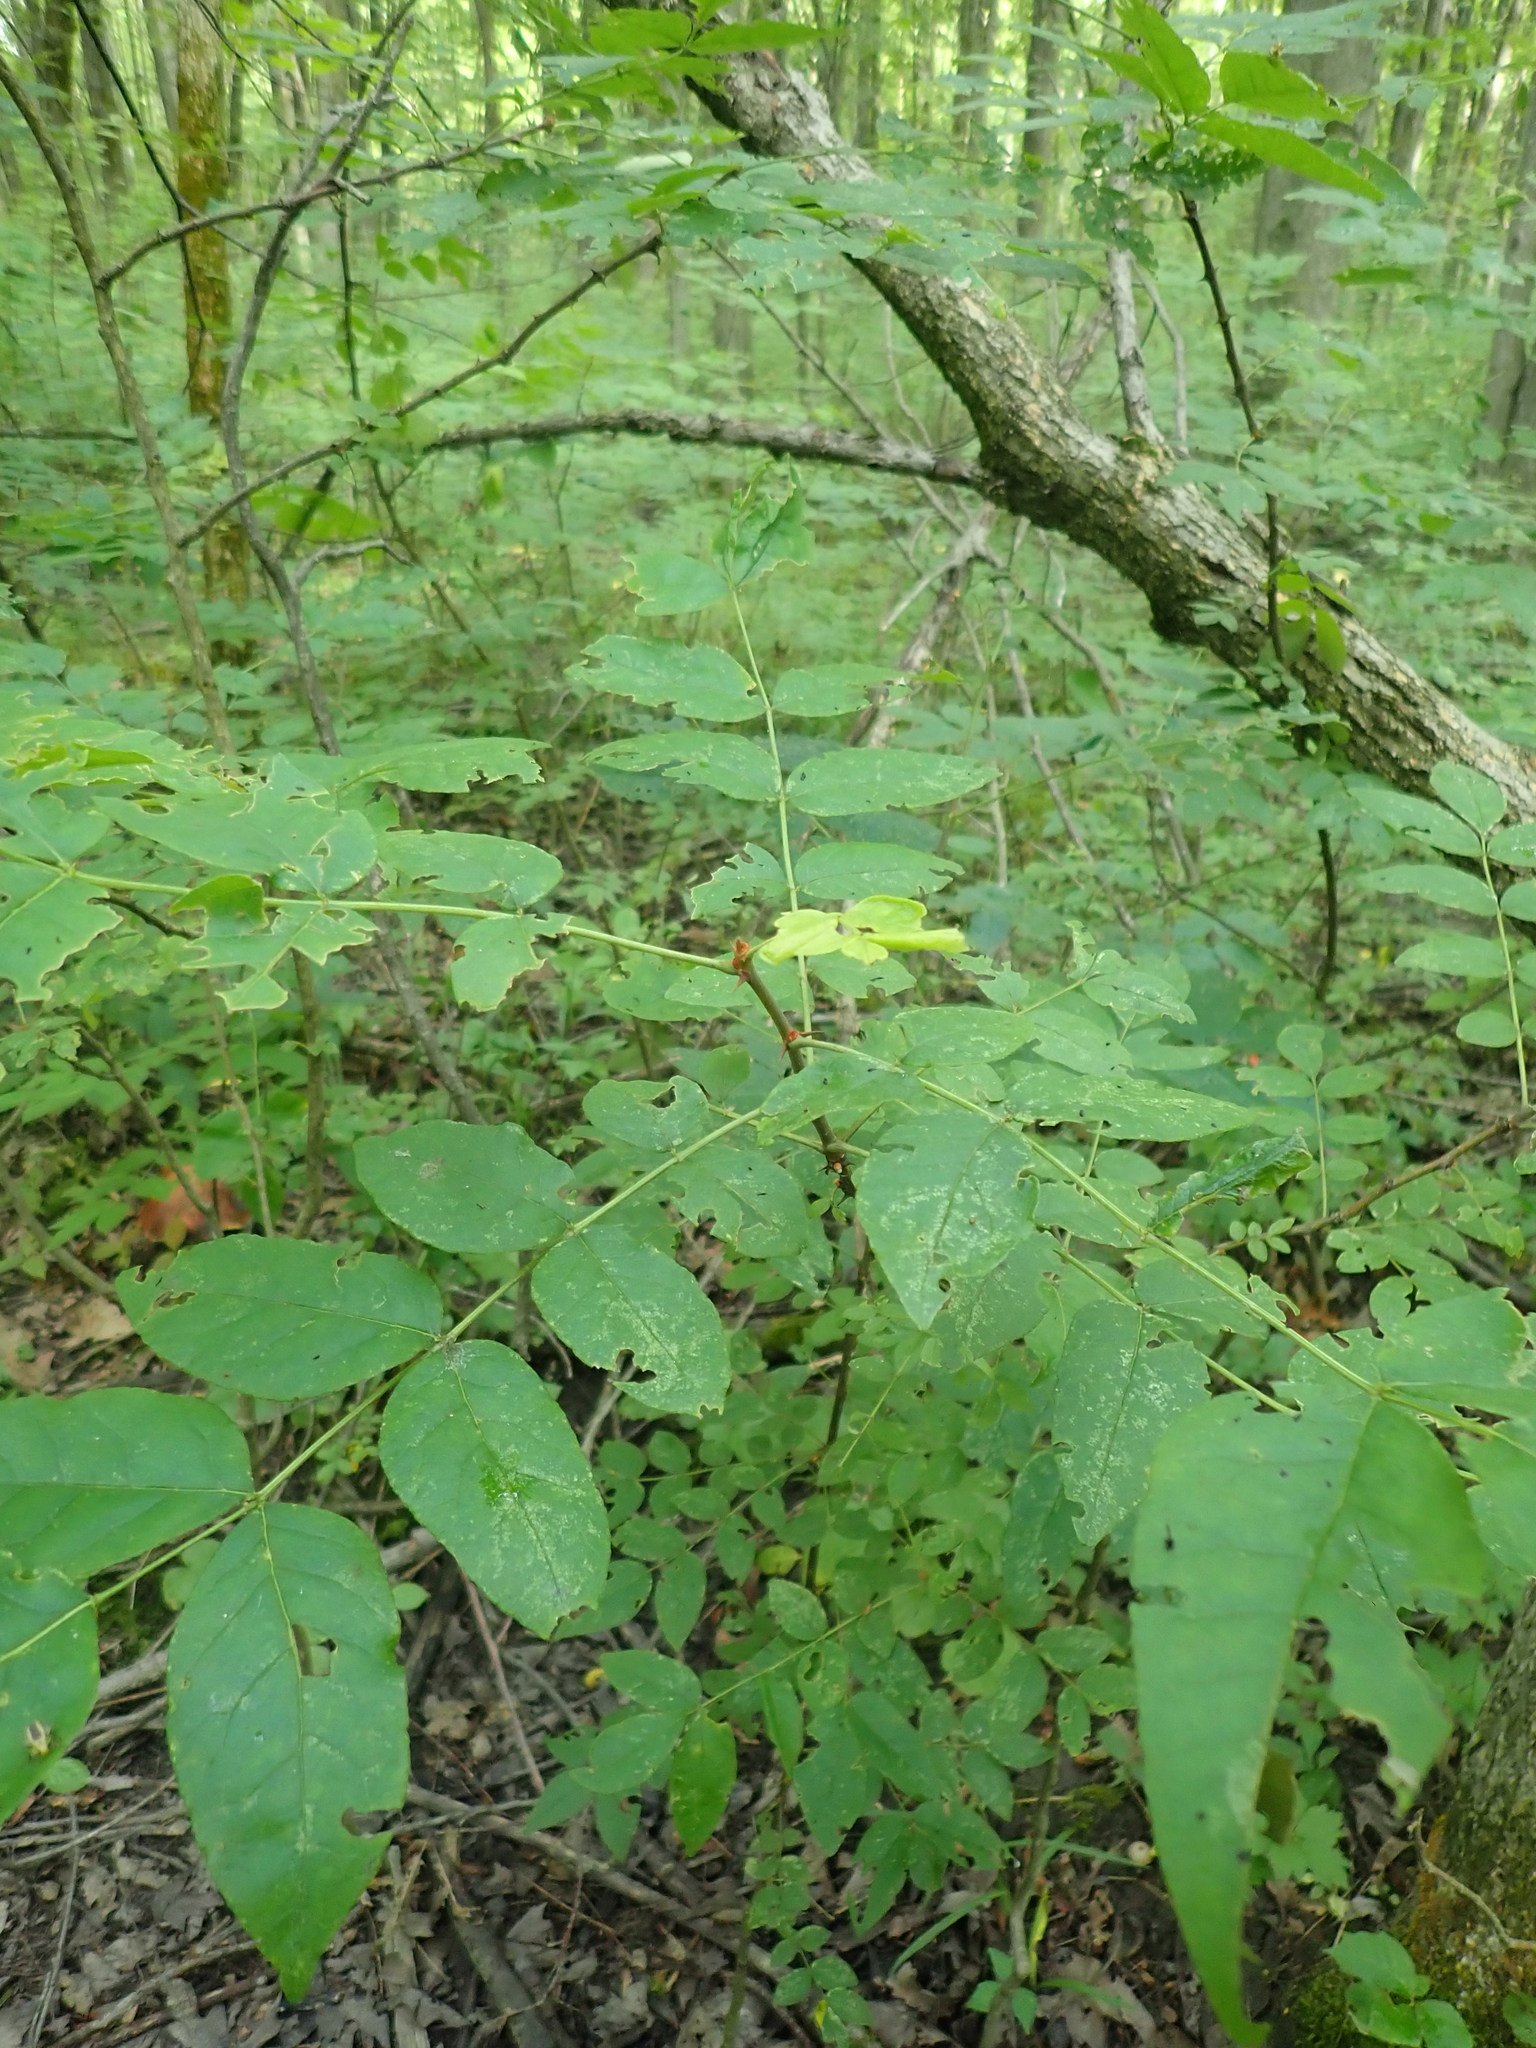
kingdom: Plantae
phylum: Tracheophyta
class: Magnoliopsida
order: Sapindales
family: Rutaceae
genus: Zanthoxylum
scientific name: Zanthoxylum americanum
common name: Northern prickly-ash
